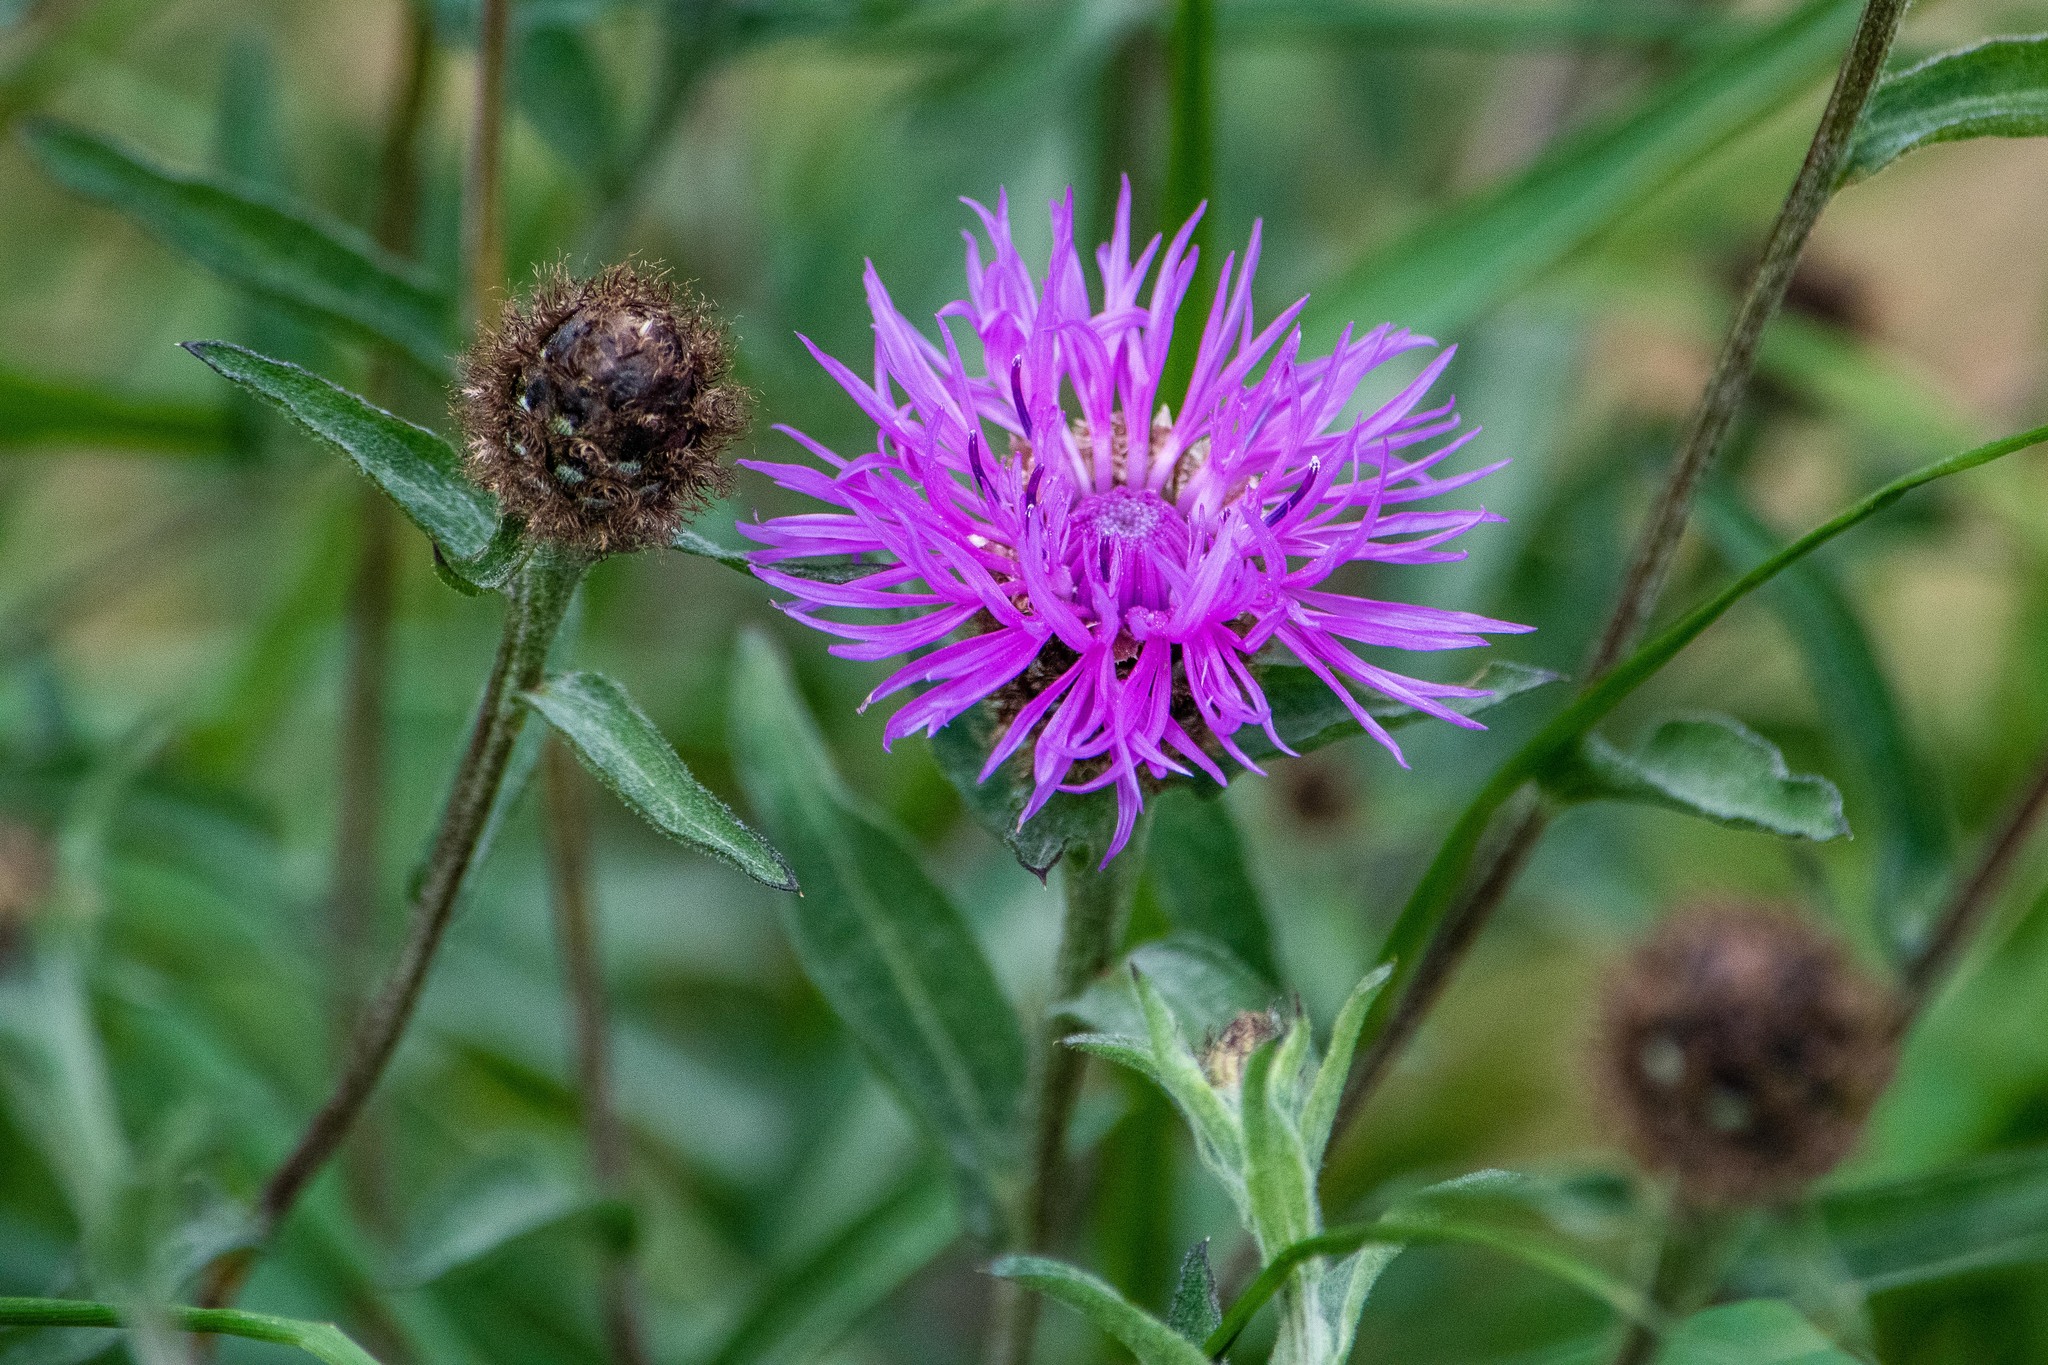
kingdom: Plantae
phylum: Tracheophyta
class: Magnoliopsida
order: Asterales
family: Asteraceae
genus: Centaurea
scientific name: Centaurea nigra
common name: Lesser knapweed
